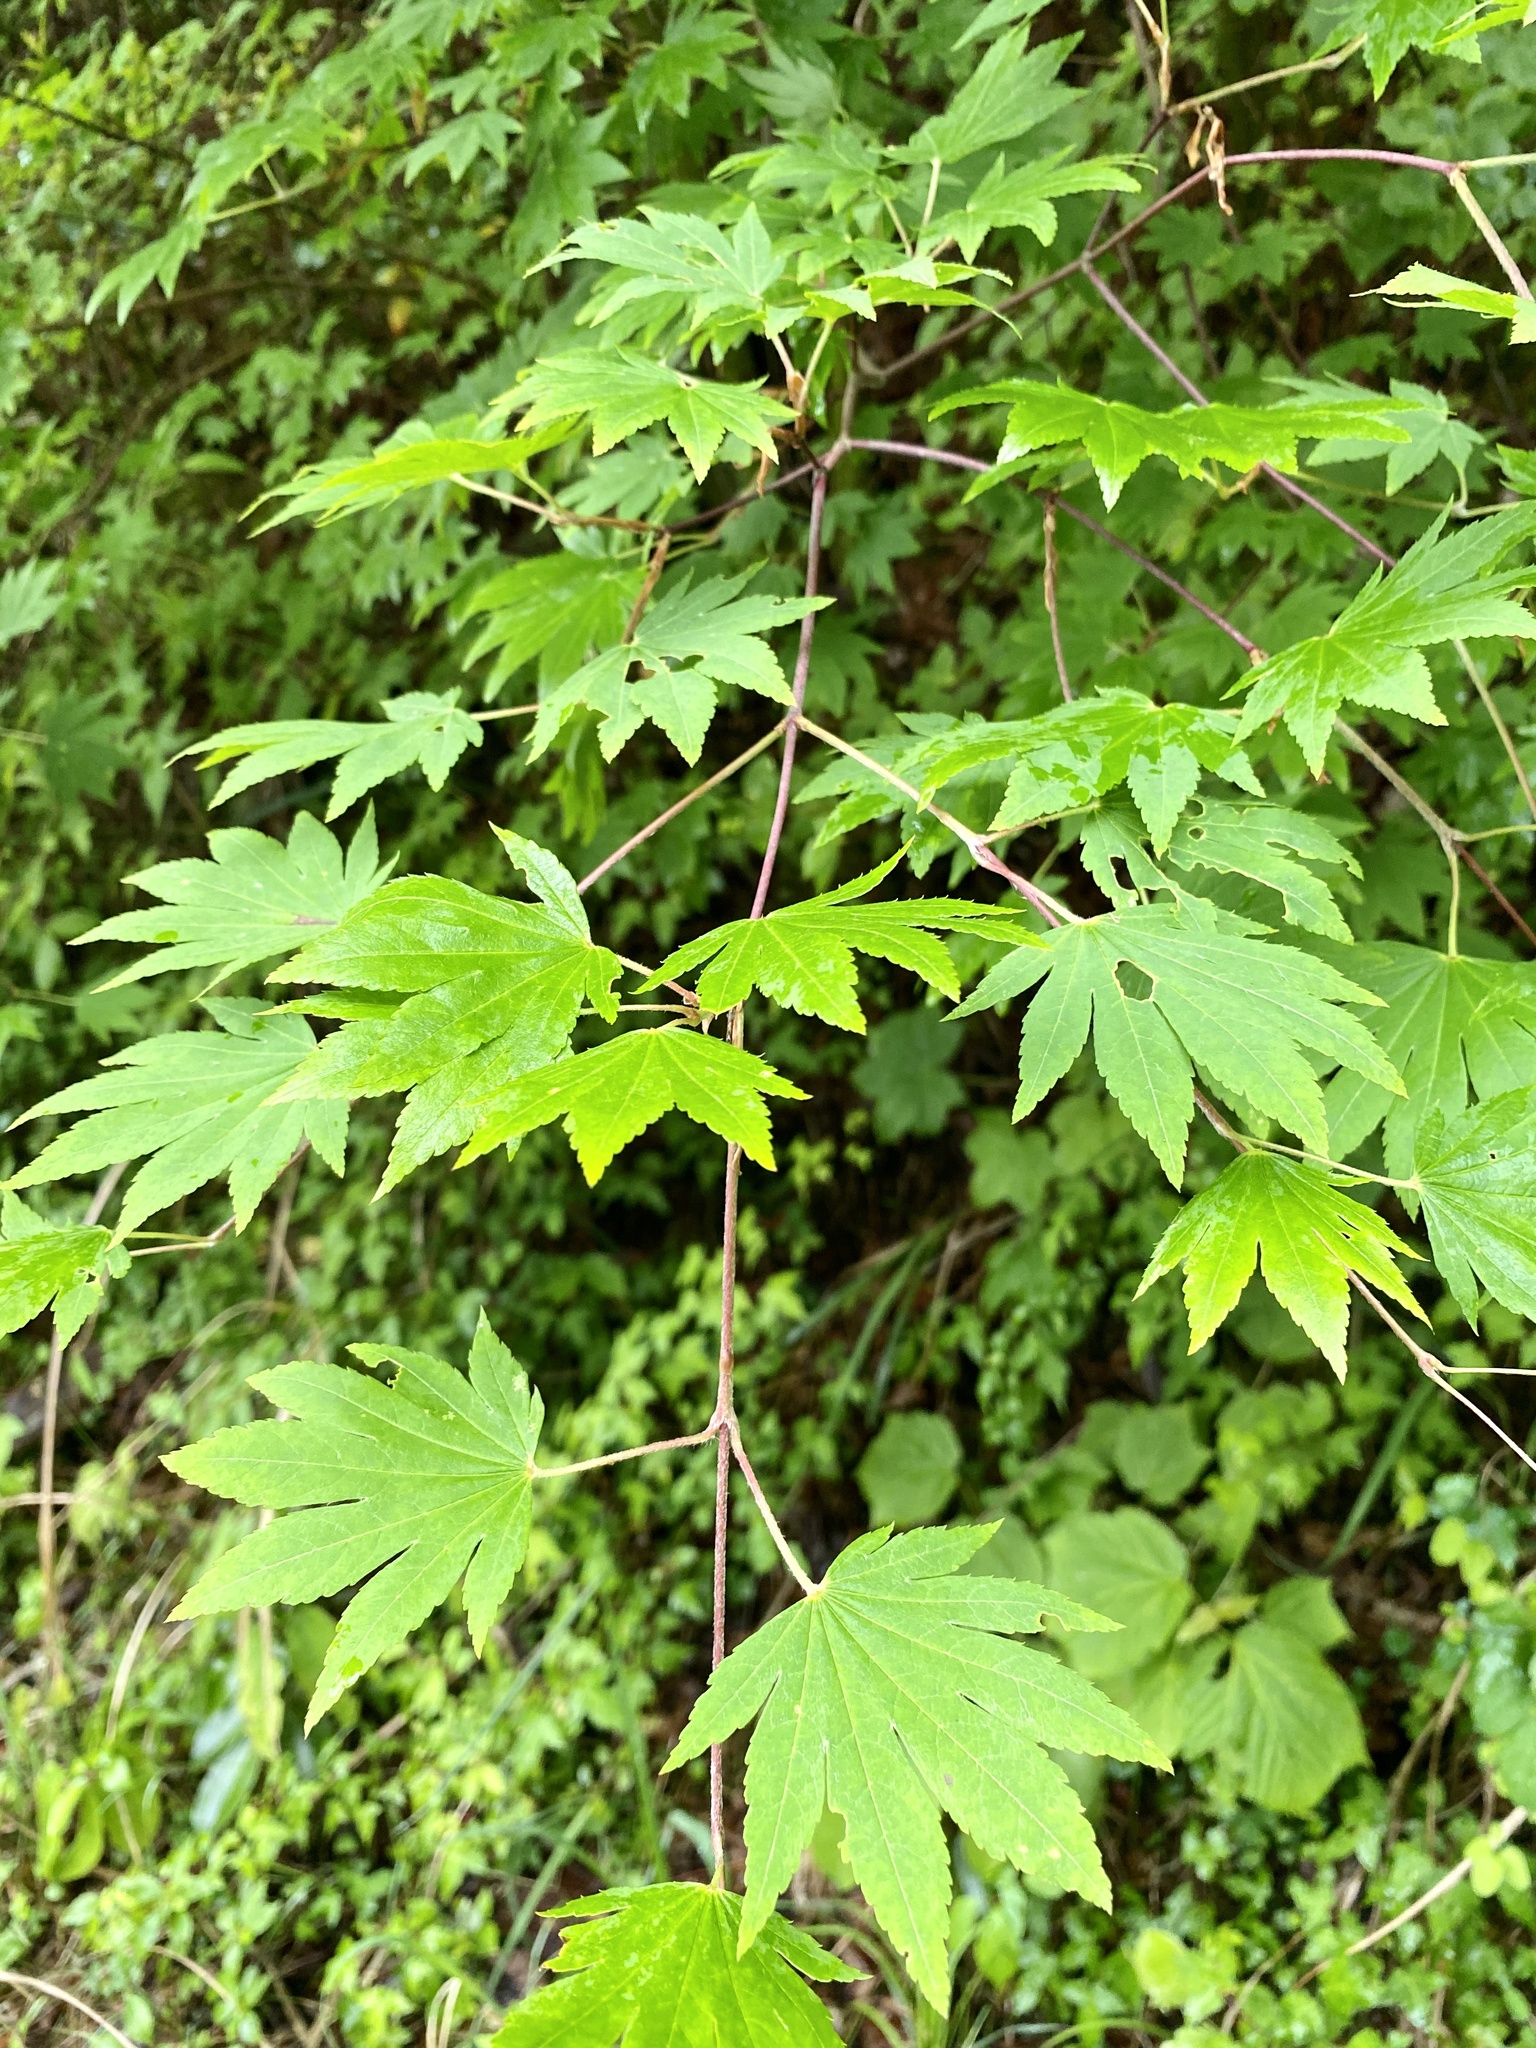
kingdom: Plantae
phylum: Tracheophyta
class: Magnoliopsida
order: Sapindales
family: Sapindaceae
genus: Acer
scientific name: Acer japonicum
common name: Amur maple
